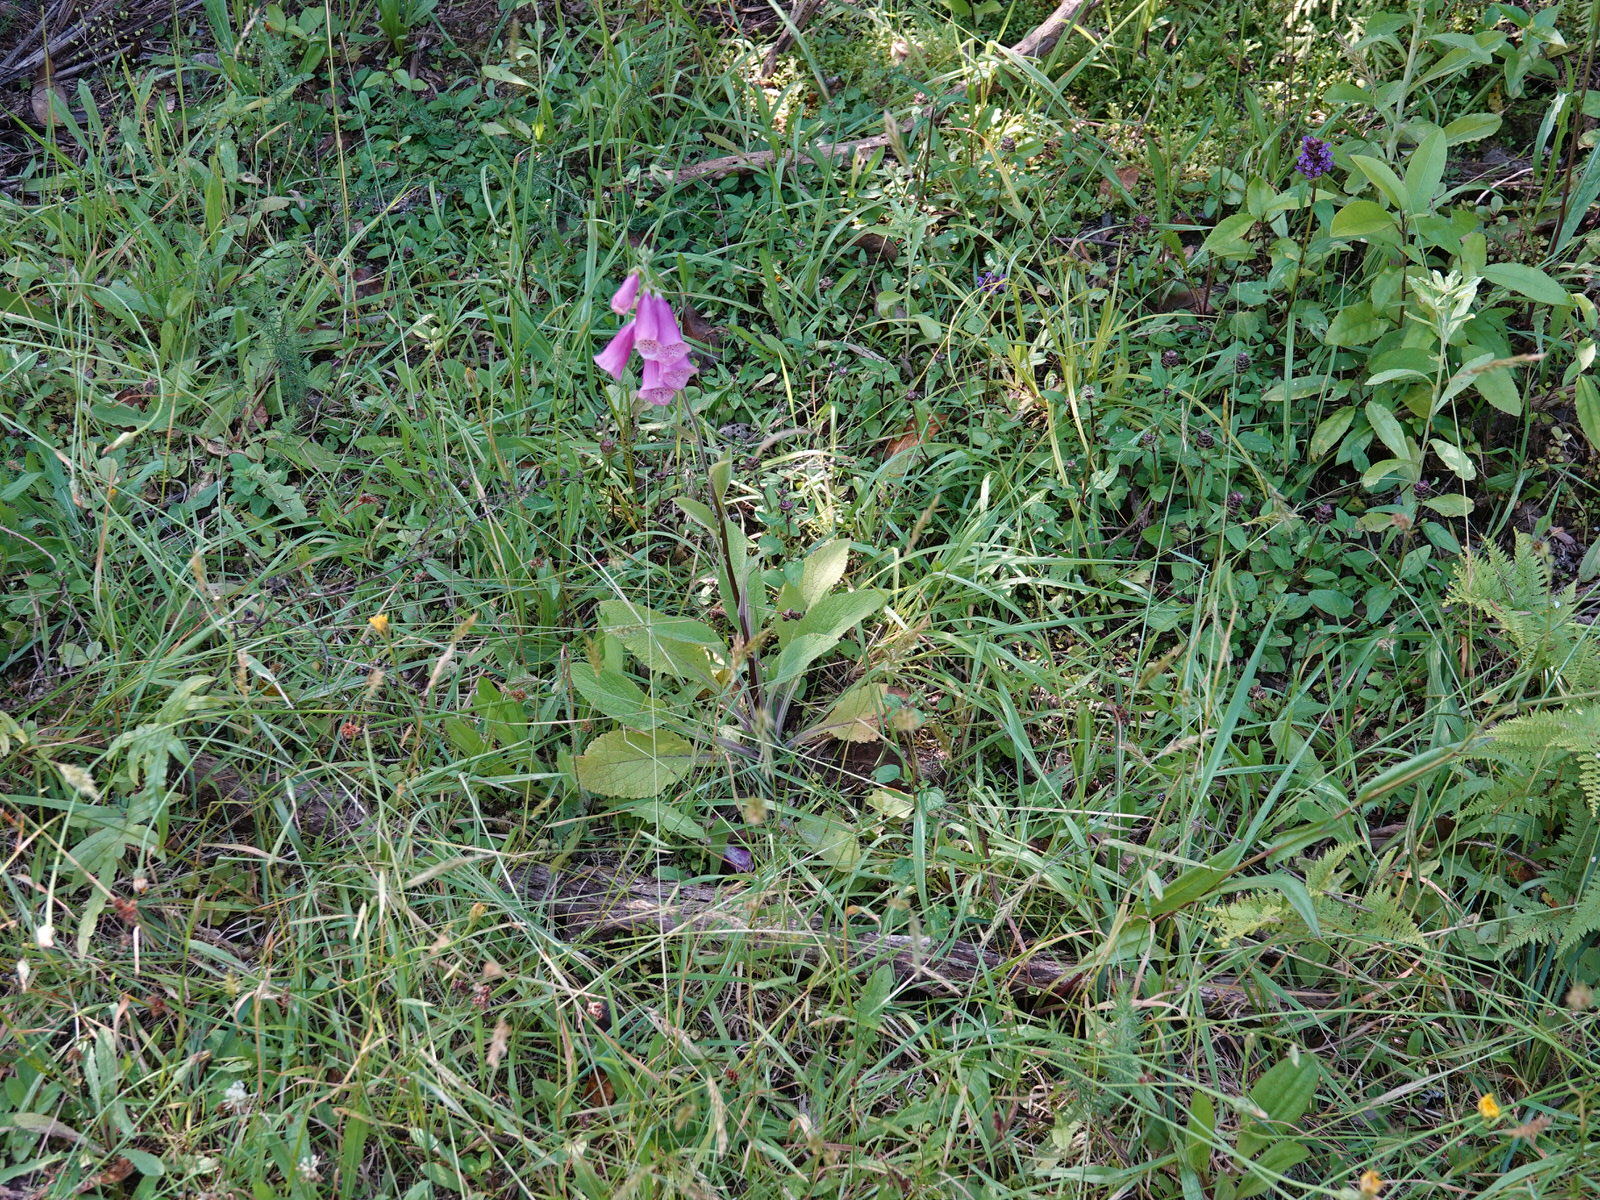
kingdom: Plantae
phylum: Tracheophyta
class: Magnoliopsida
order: Lamiales
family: Plantaginaceae
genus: Digitalis
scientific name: Digitalis purpurea
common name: Foxglove
